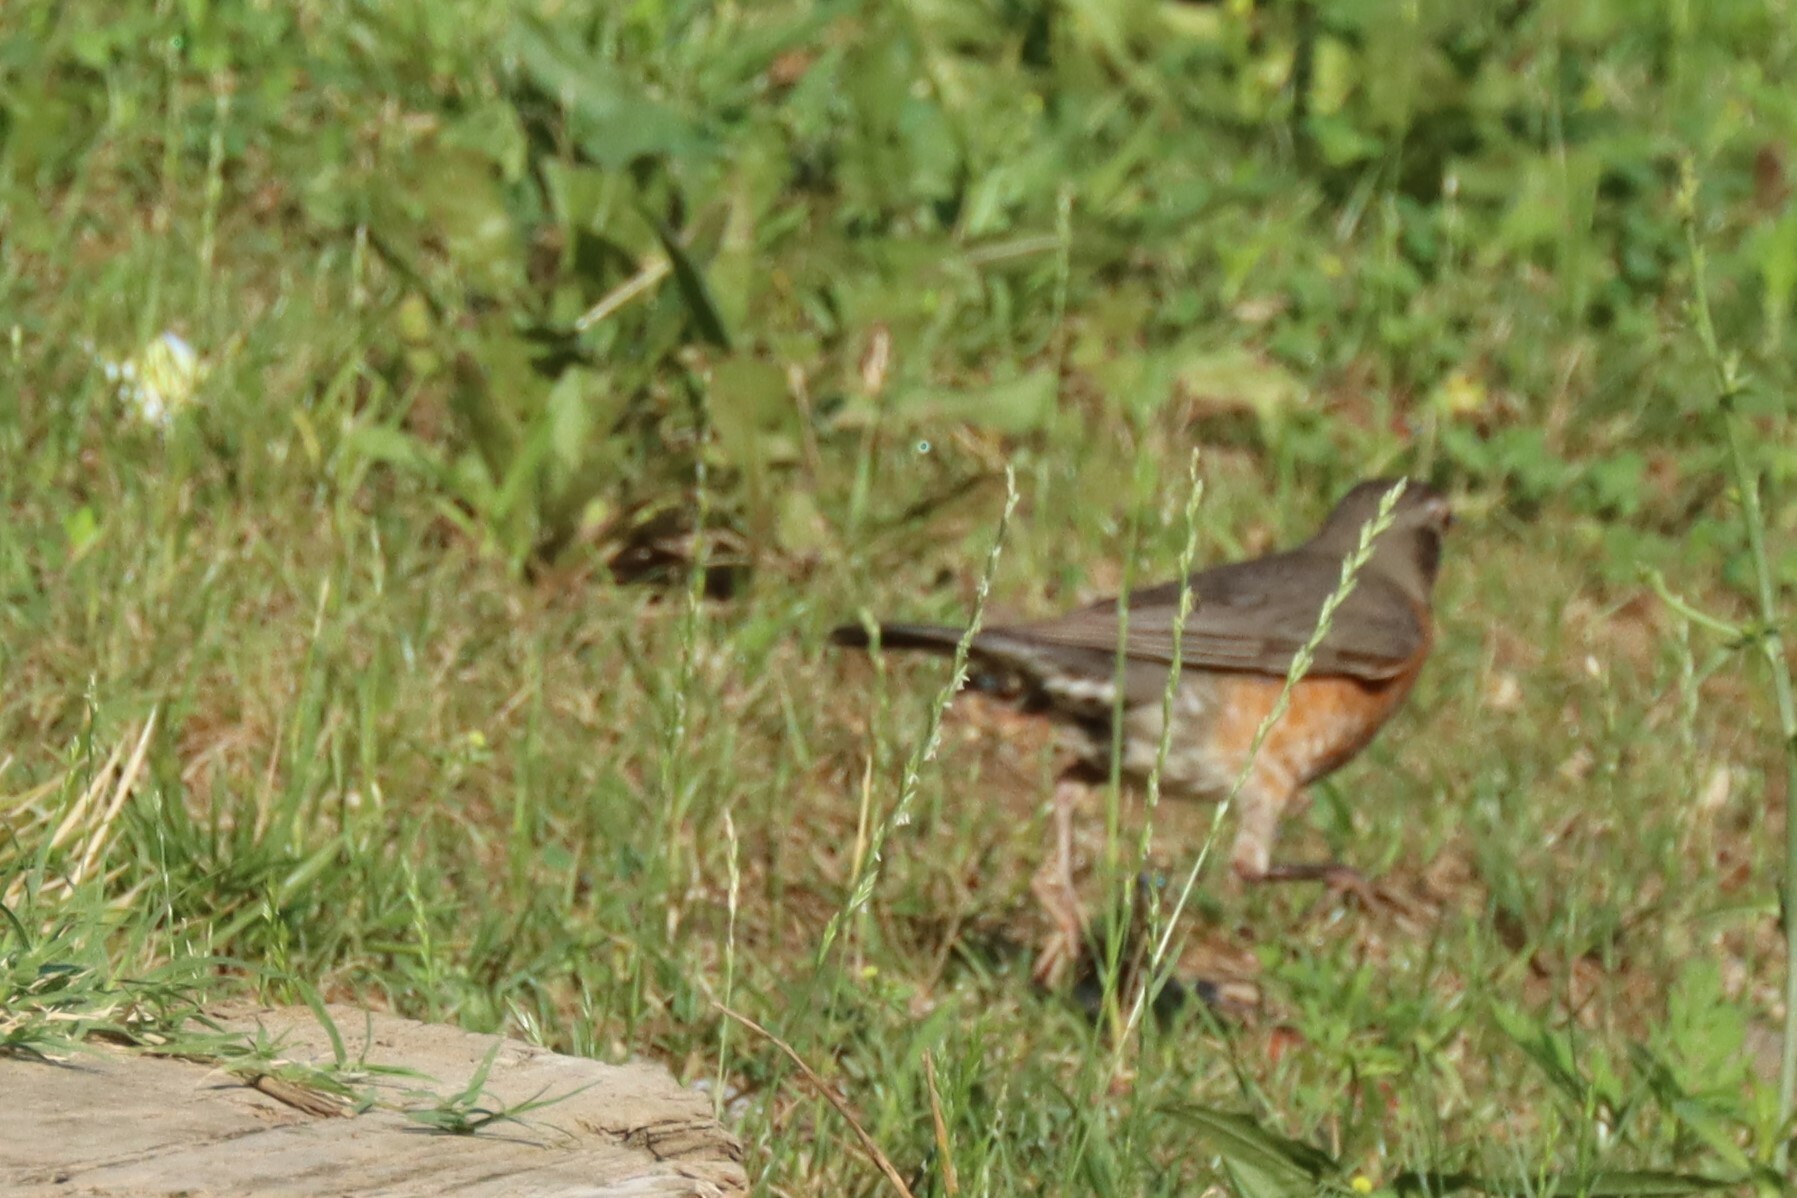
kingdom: Animalia
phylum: Chordata
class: Aves
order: Passeriformes
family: Turdidae
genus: Turdus
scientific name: Turdus migratorius
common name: American robin
